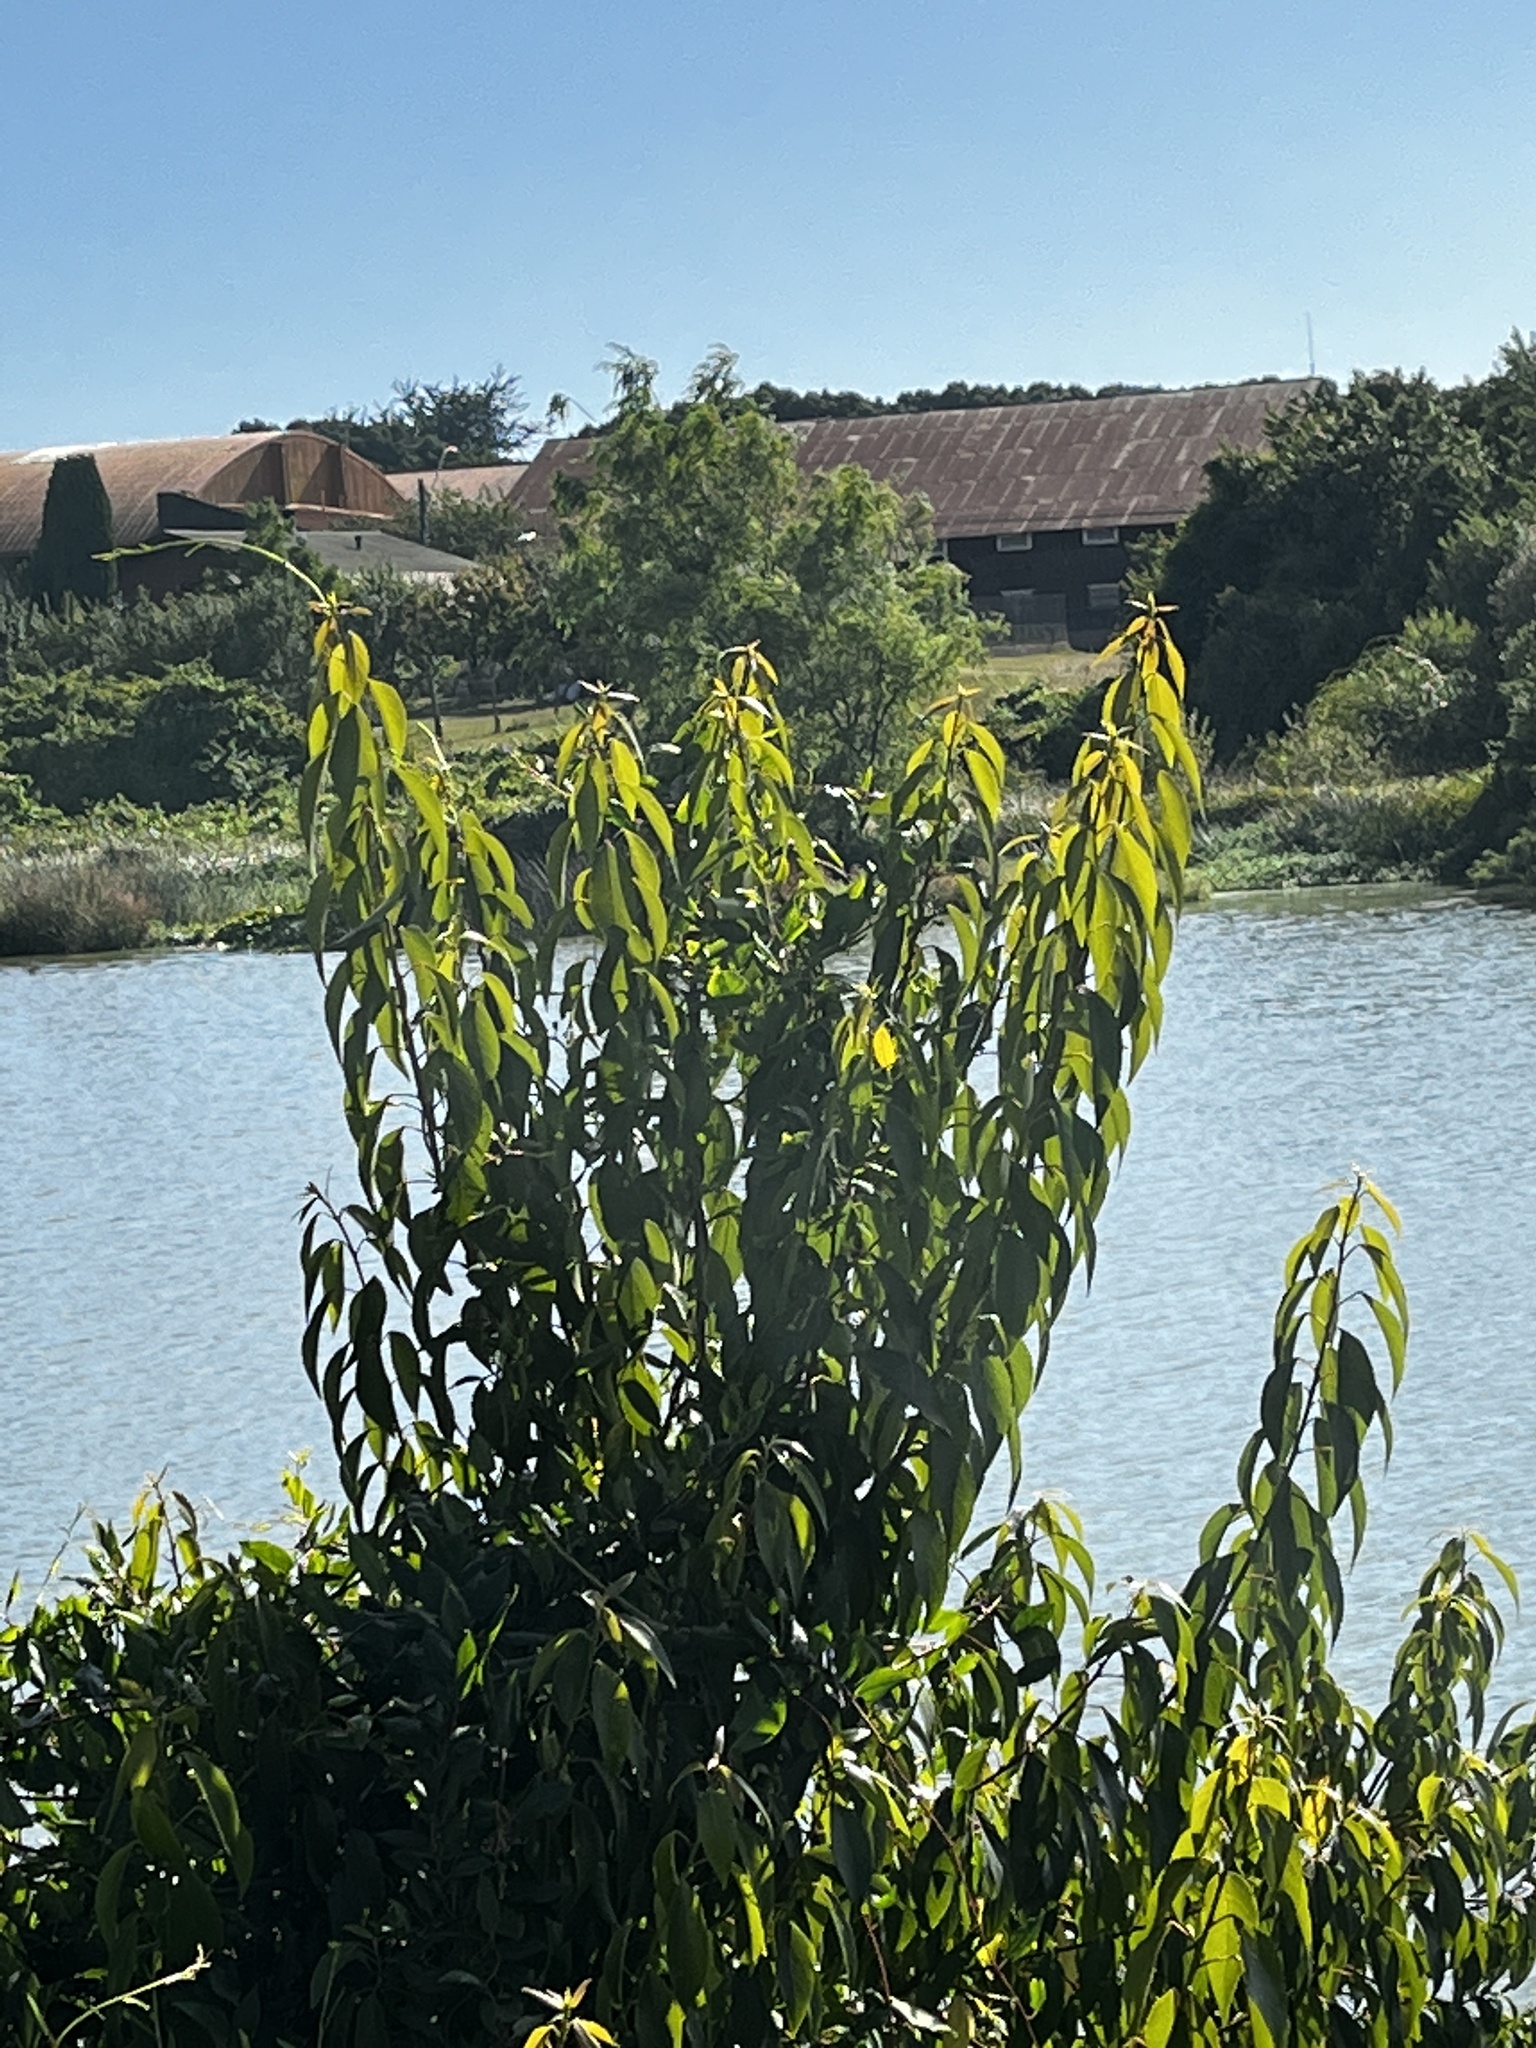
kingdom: Plantae
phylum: Tracheophyta
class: Magnoliopsida
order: Oxalidales
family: Elaeocarpaceae
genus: Aristotelia
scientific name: Aristotelia chilensis
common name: Maquei
